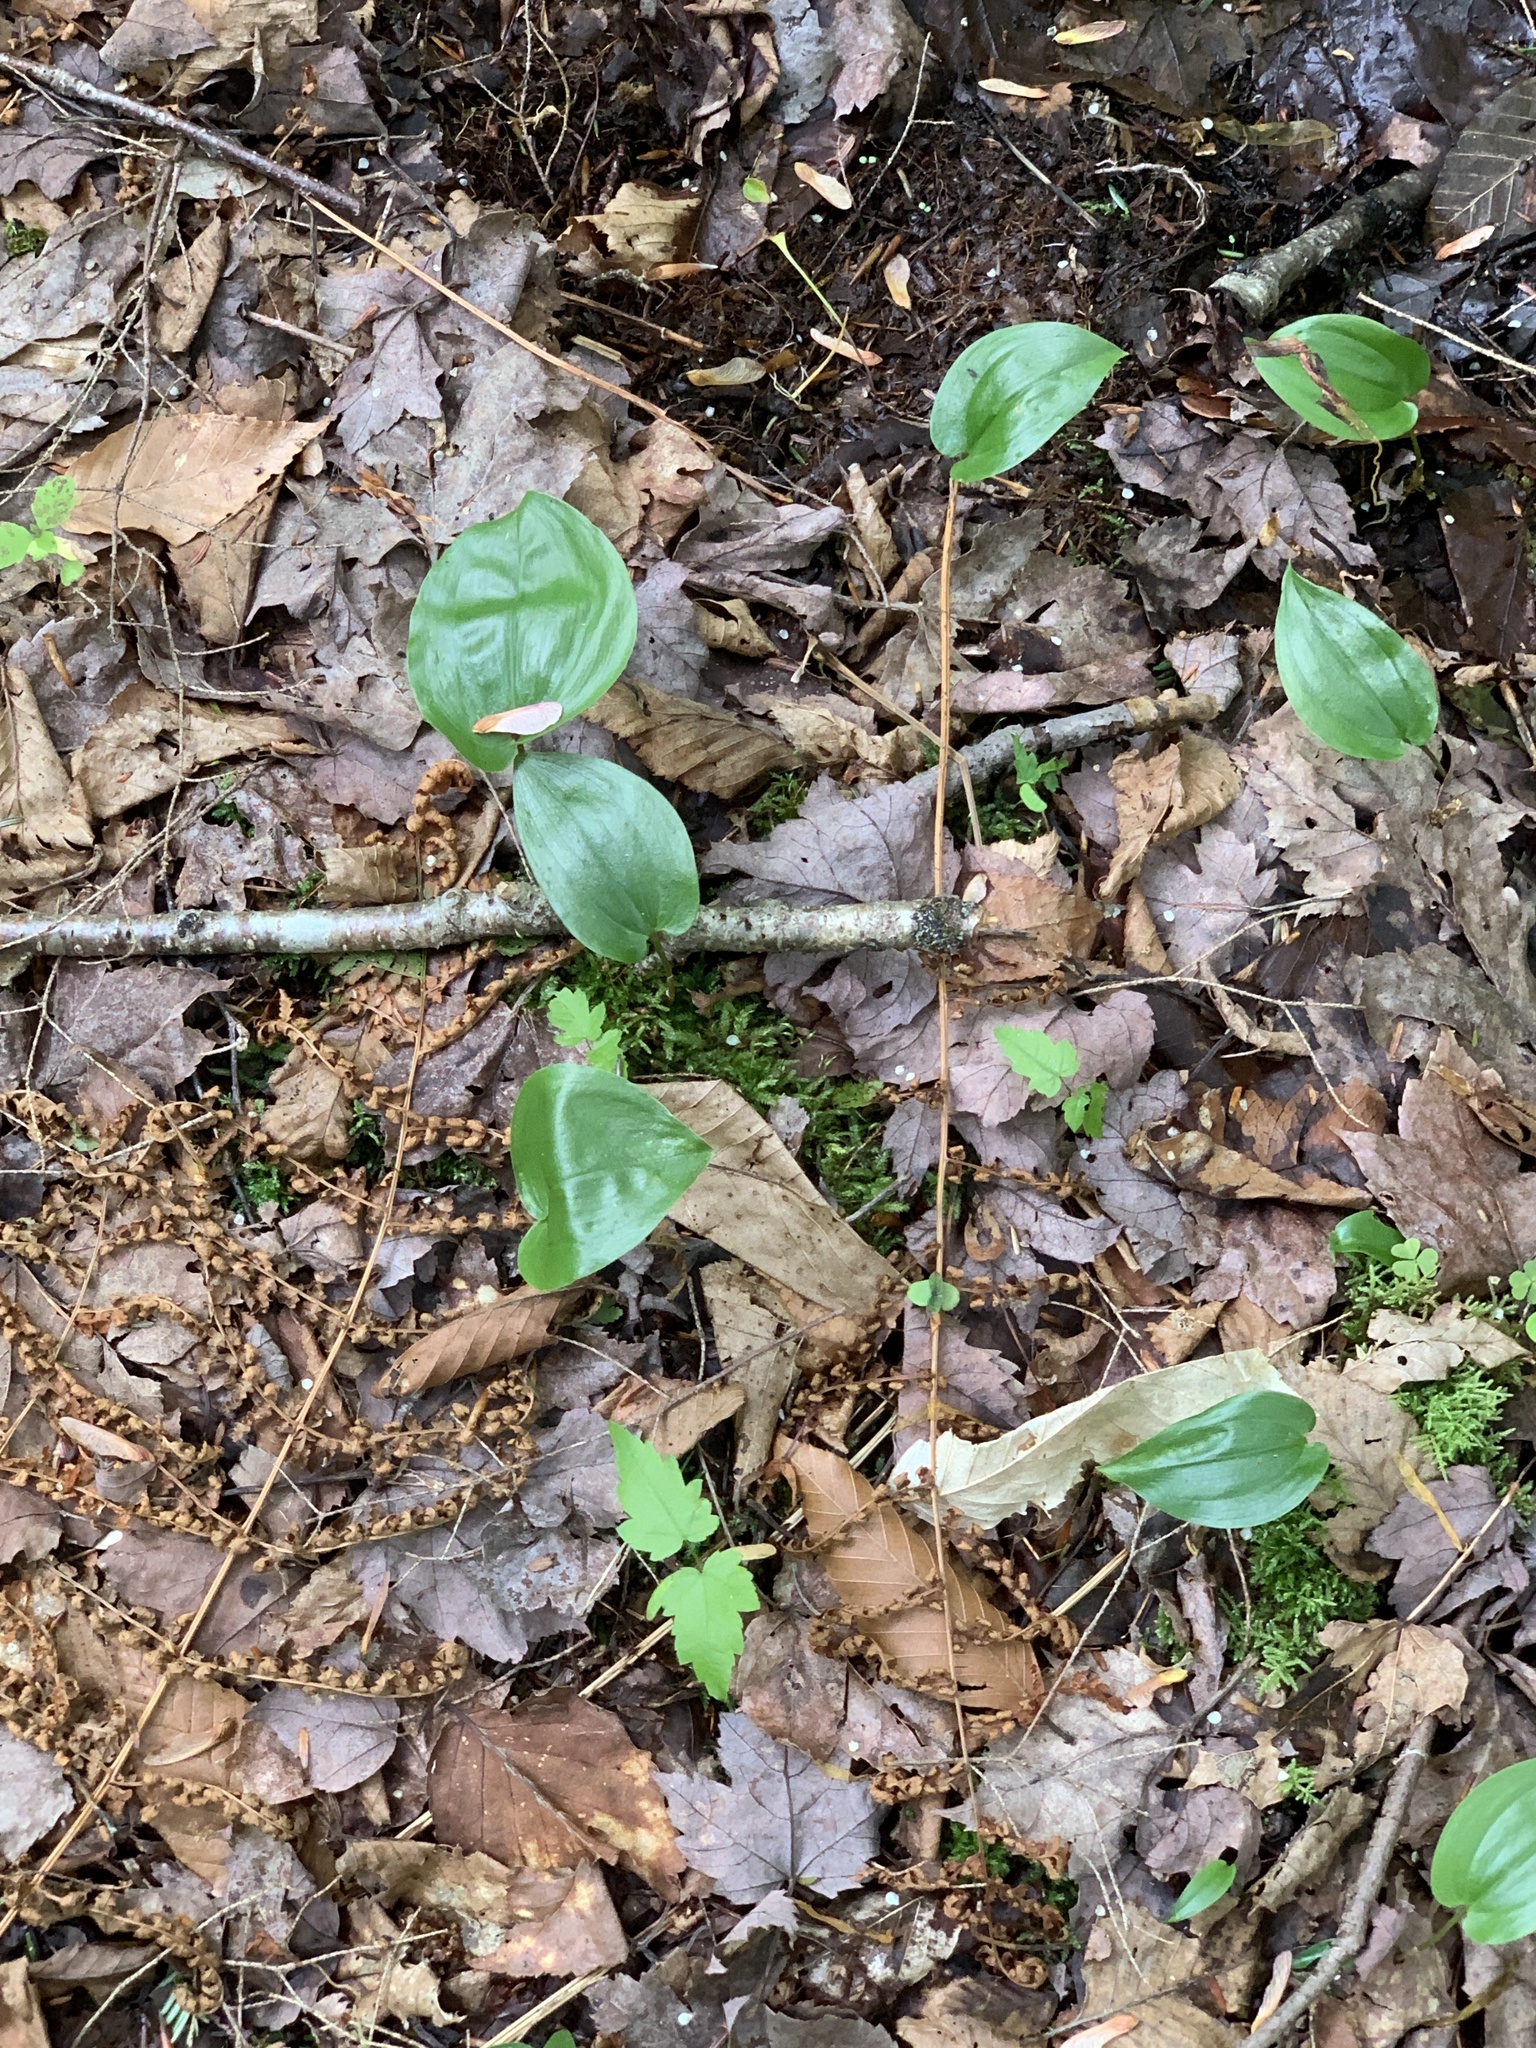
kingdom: Plantae
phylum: Tracheophyta
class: Liliopsida
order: Asparagales
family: Asparagaceae
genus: Maianthemum
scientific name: Maianthemum canadense
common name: False lily-of-the-valley
